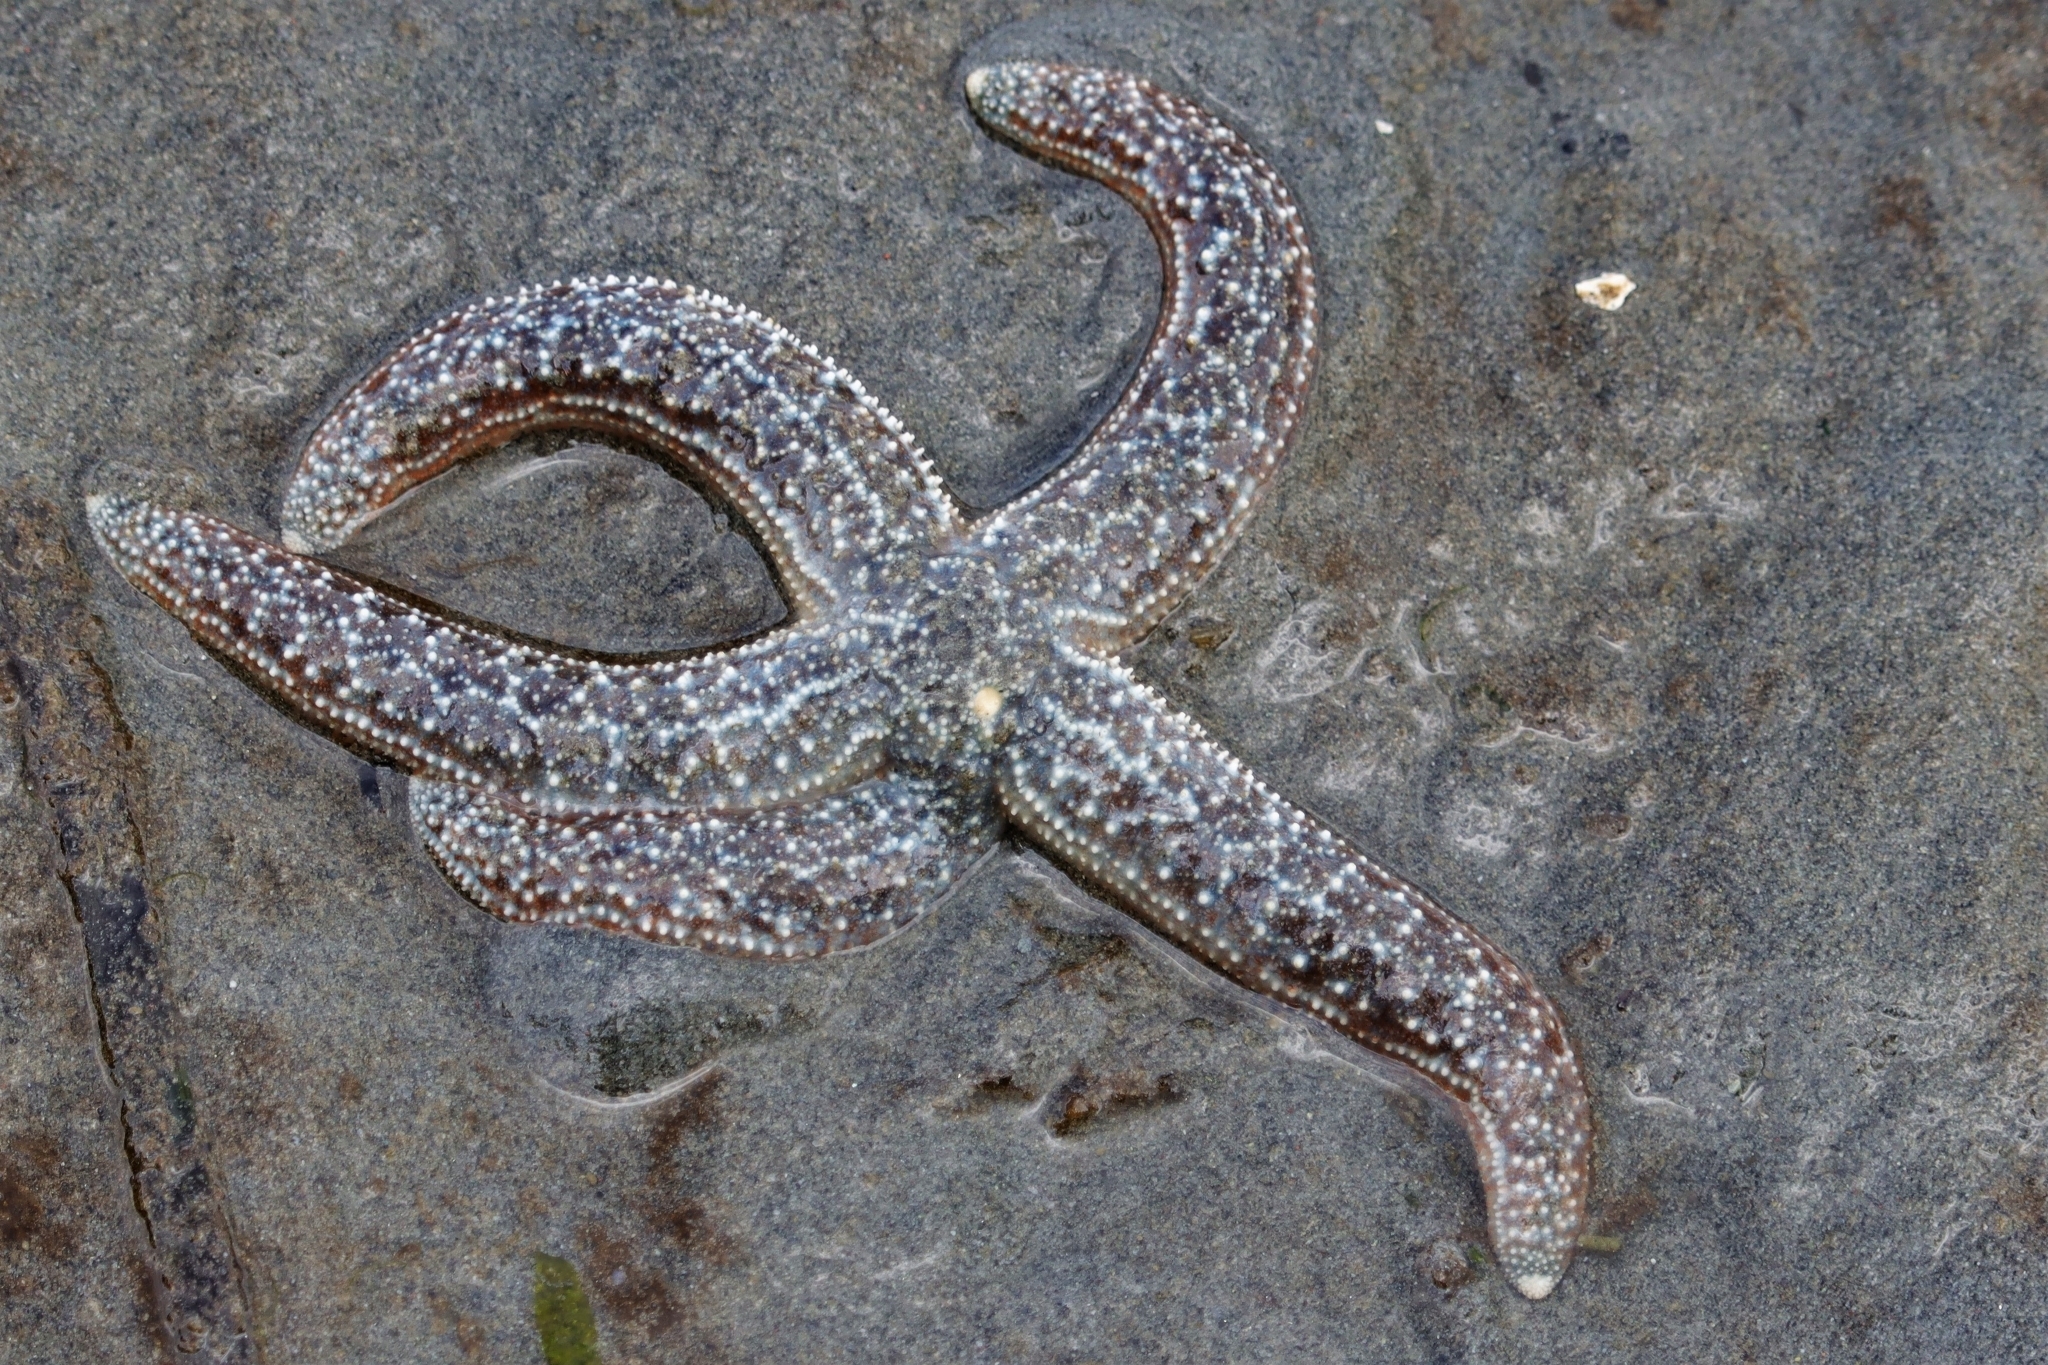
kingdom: Animalia
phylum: Echinodermata
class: Asteroidea
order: Forcipulatida
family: Asteriidae
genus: Evasterias
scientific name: Evasterias troschelii
